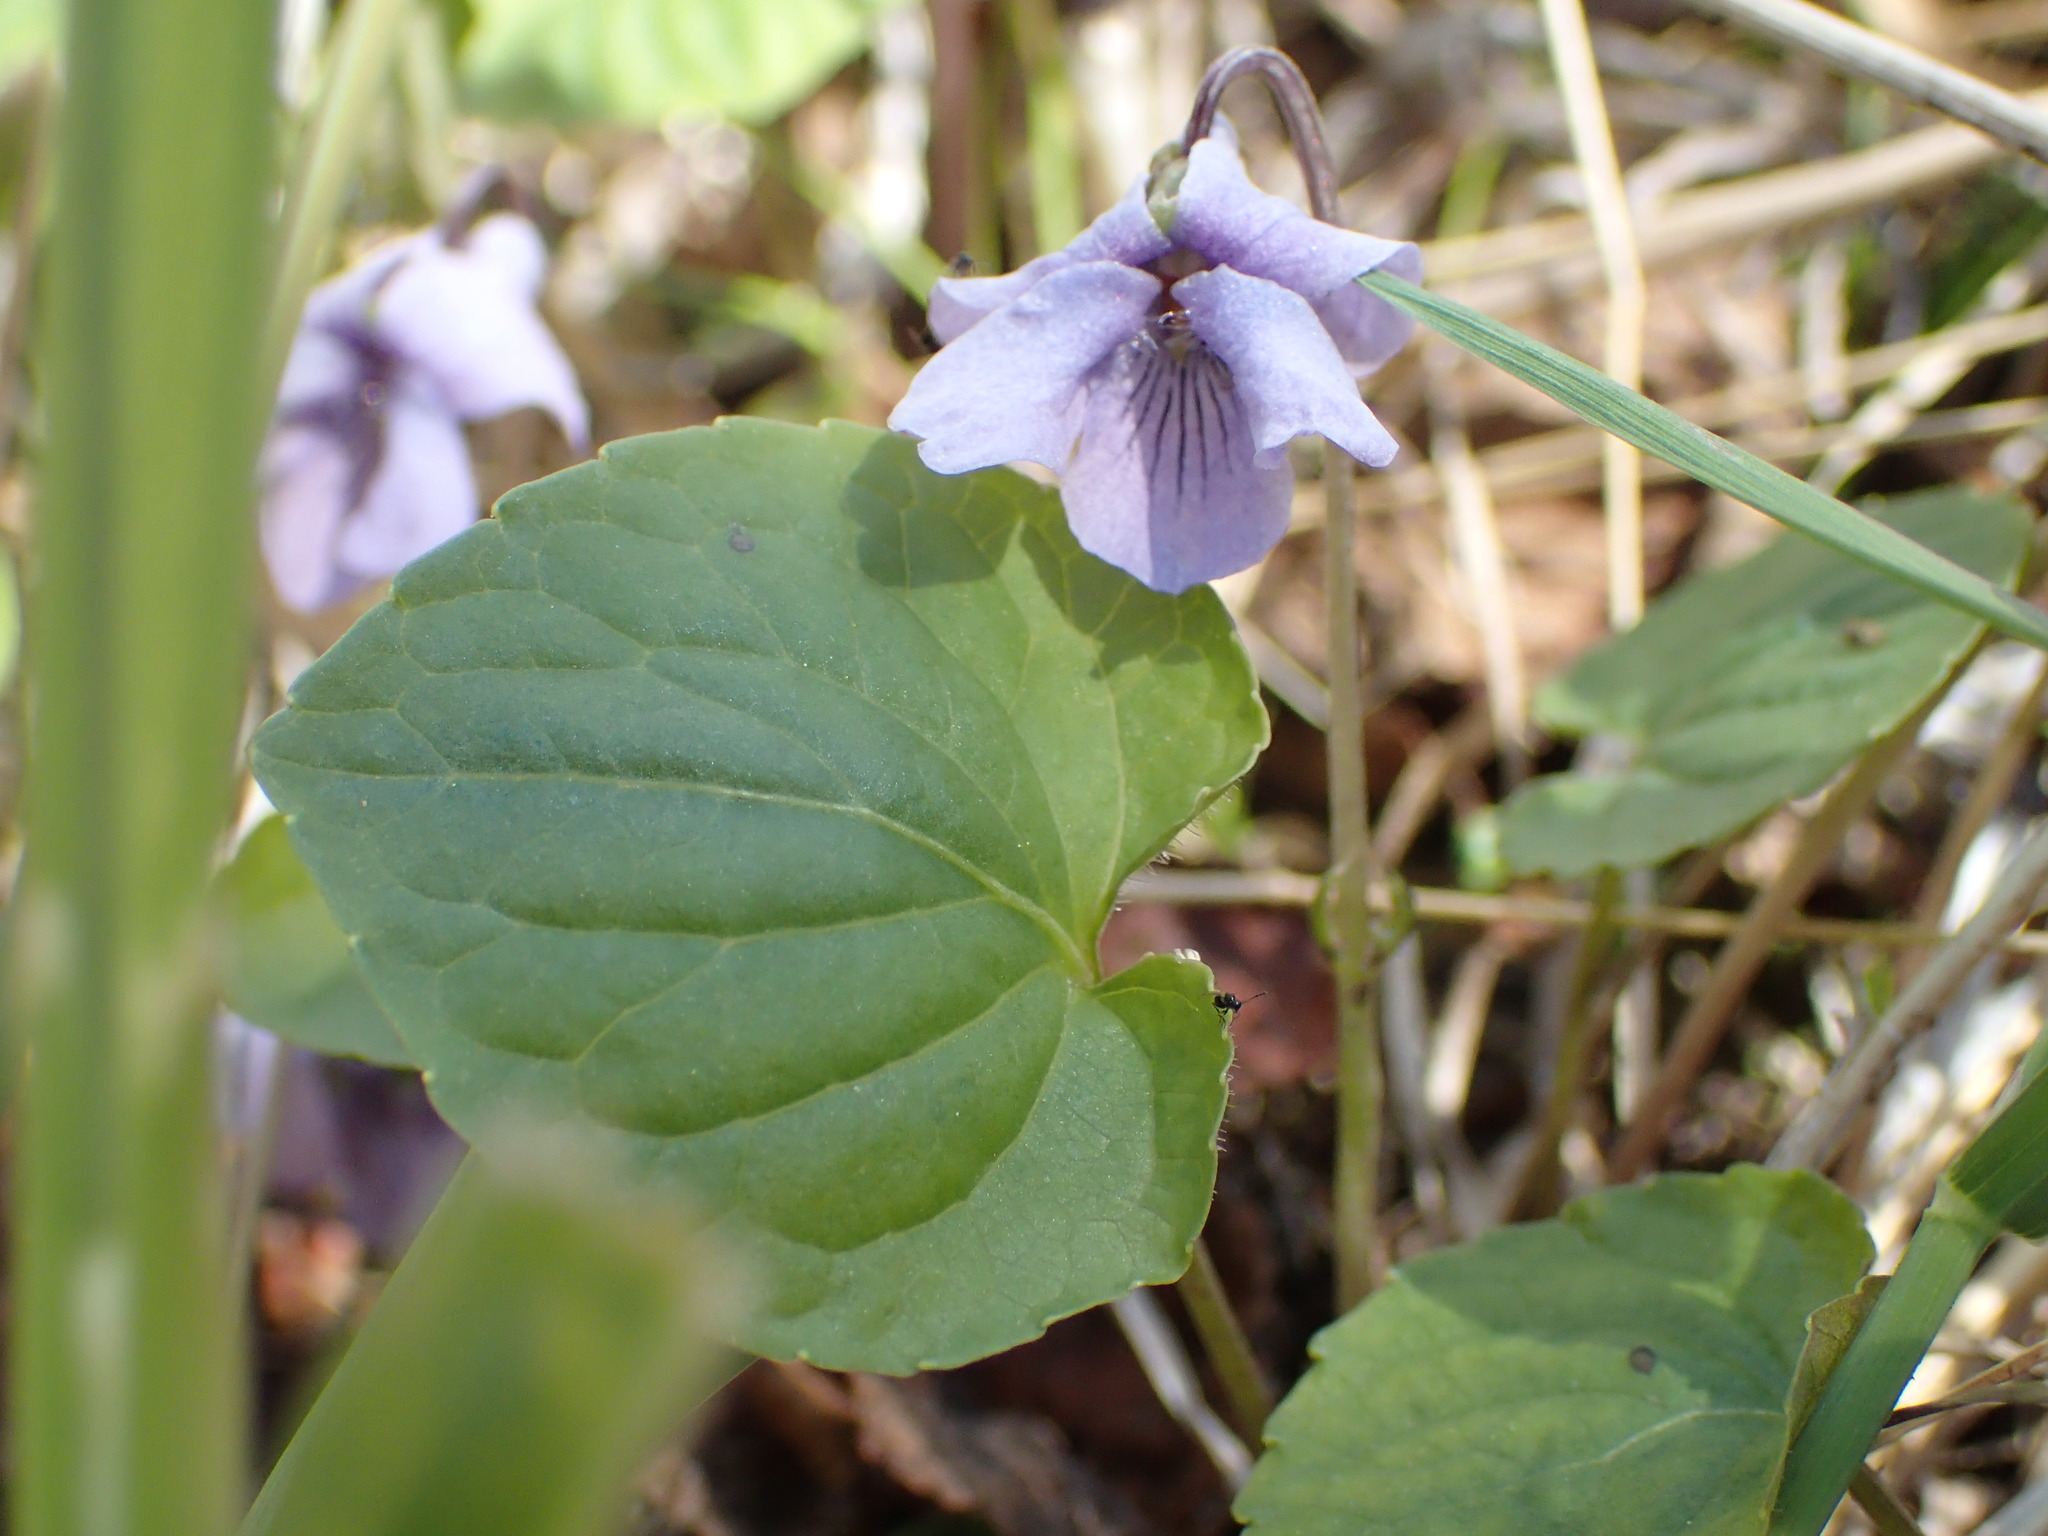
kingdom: Plantae
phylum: Tracheophyta
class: Magnoliopsida
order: Malpighiales
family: Violaceae
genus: Viola
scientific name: Viola epipsila
